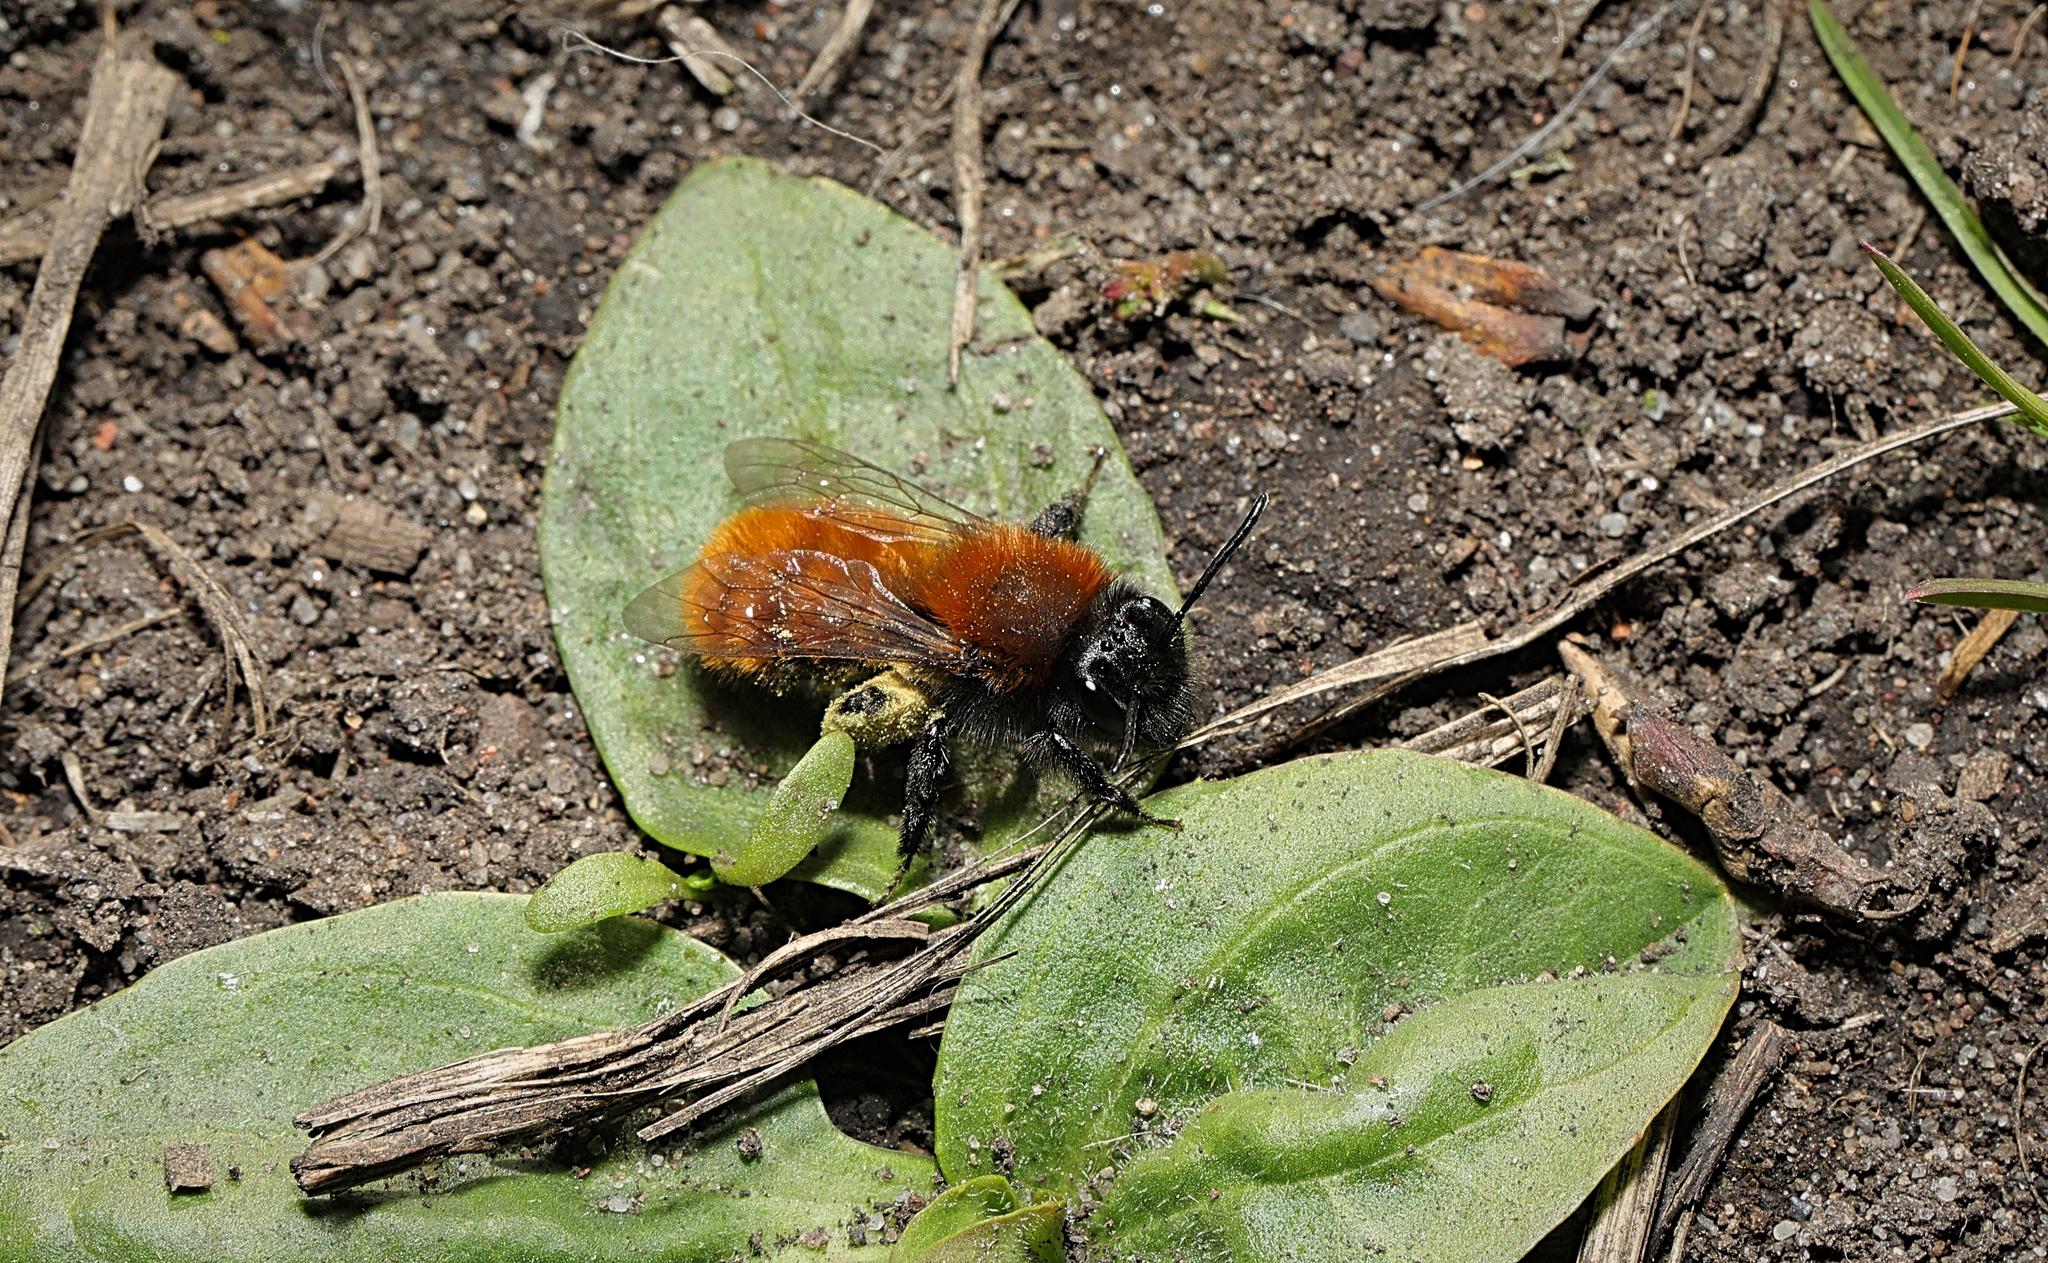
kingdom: Animalia
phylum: Arthropoda
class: Insecta
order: Hymenoptera
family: Andrenidae
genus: Andrena
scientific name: Andrena fulva
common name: Tawny mining bee
